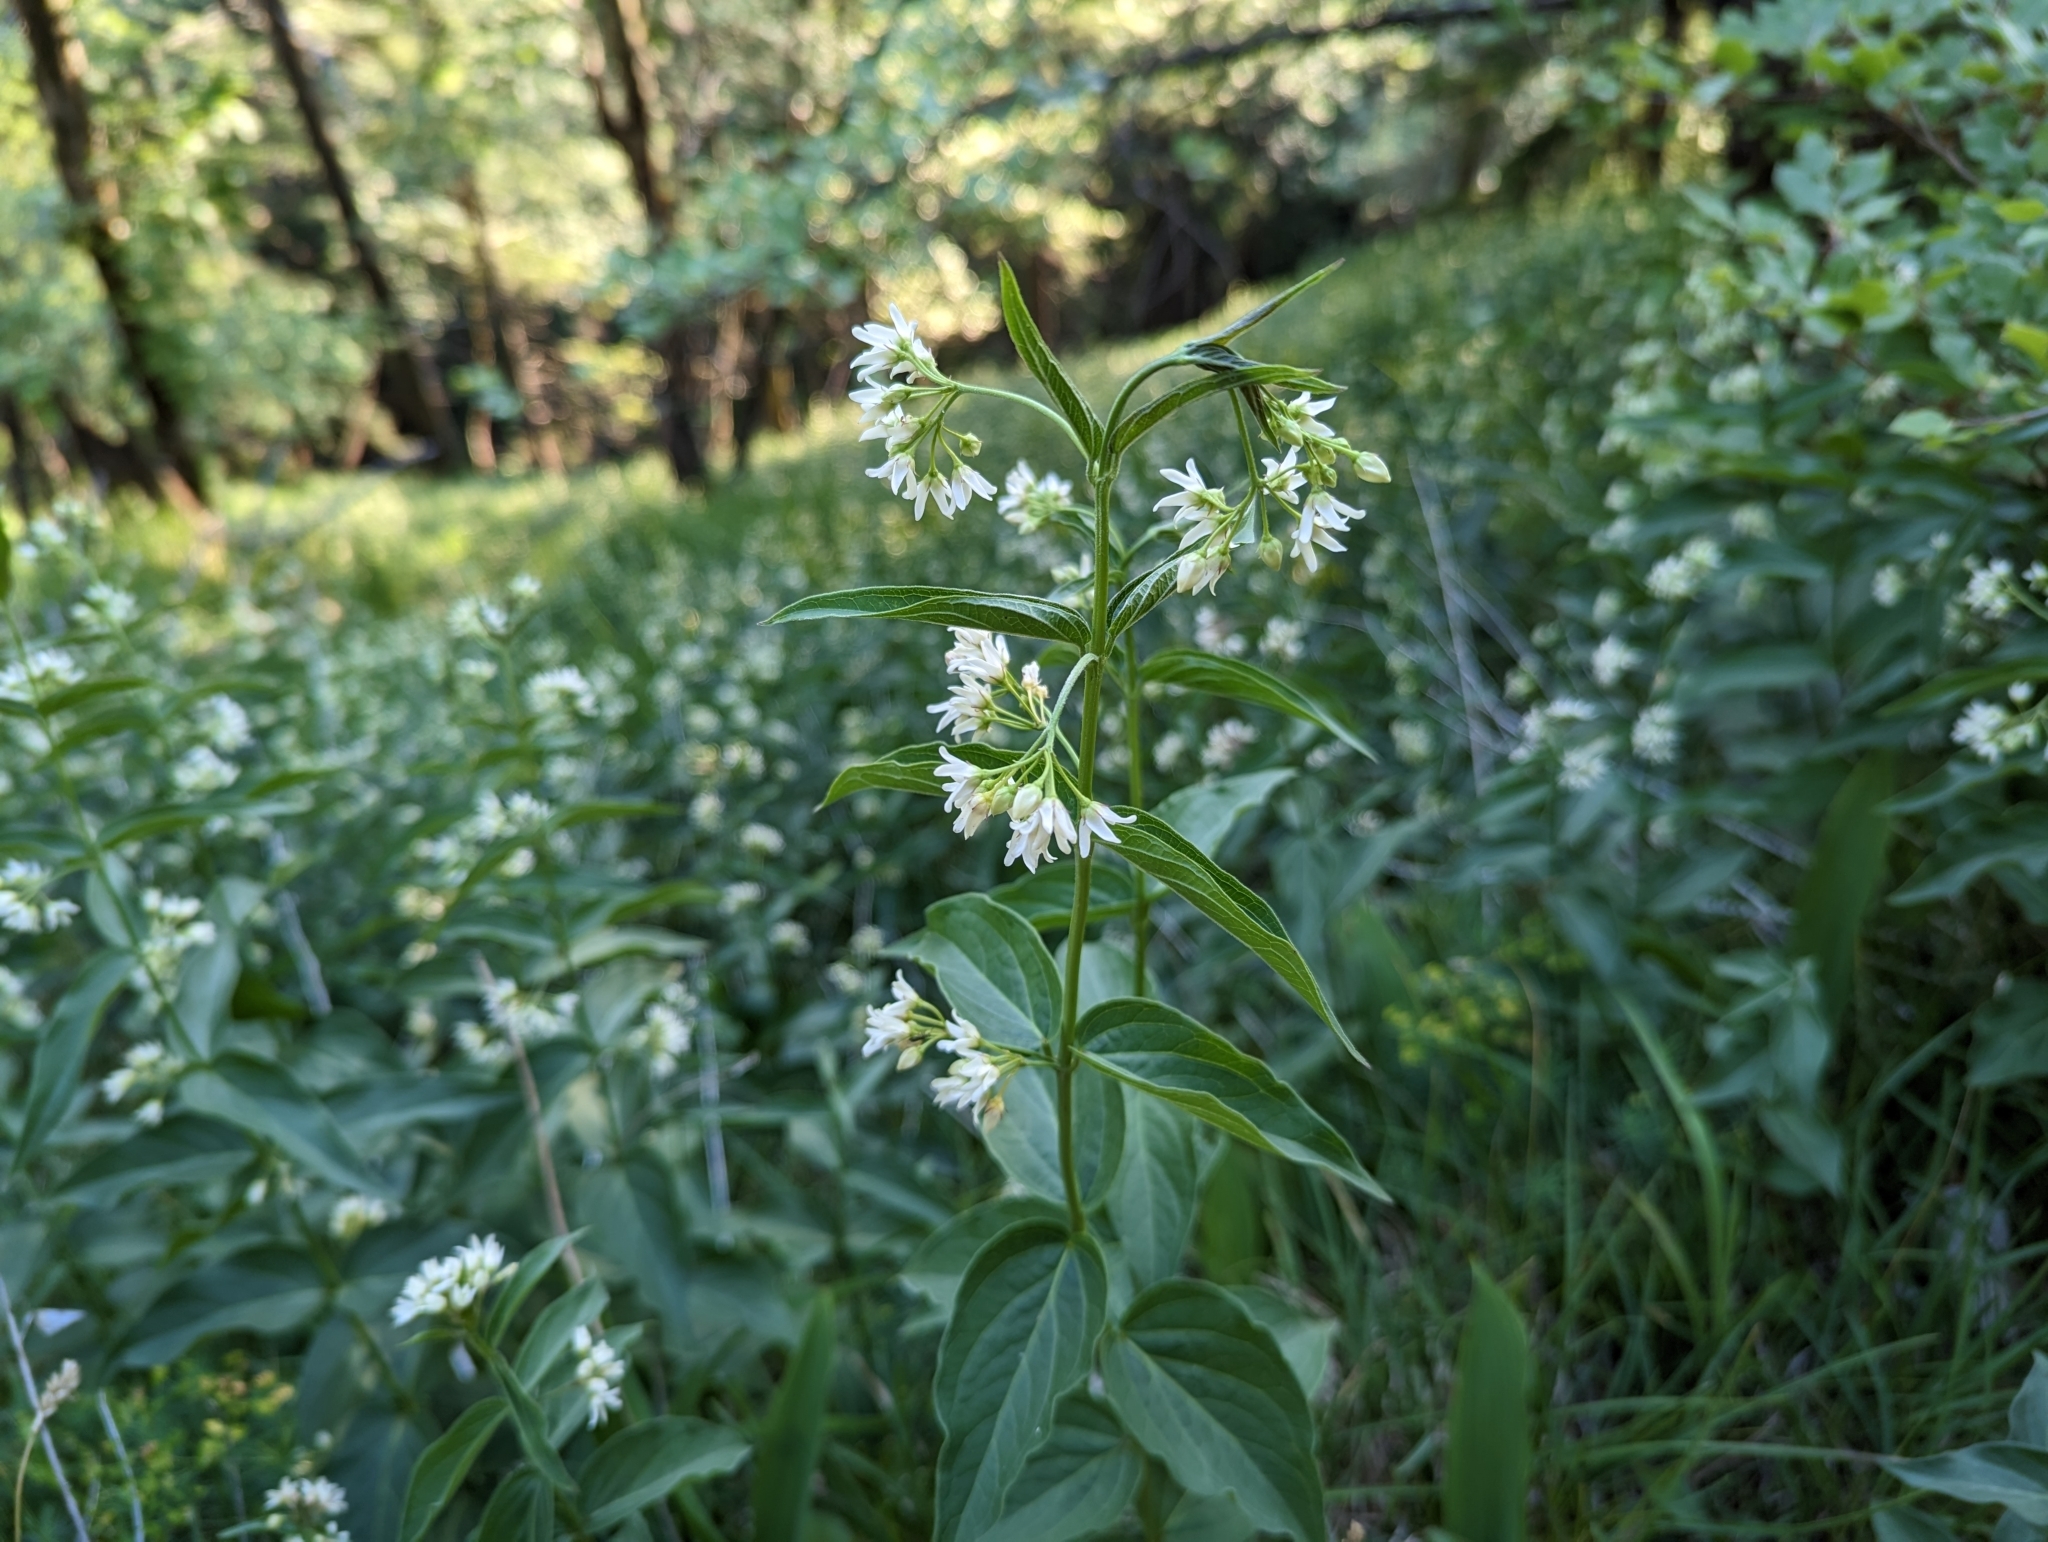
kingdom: Plantae
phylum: Tracheophyta
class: Magnoliopsida
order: Gentianales
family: Apocynaceae
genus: Vincetoxicum
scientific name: Vincetoxicum hirundinaria
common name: White swallowwort
